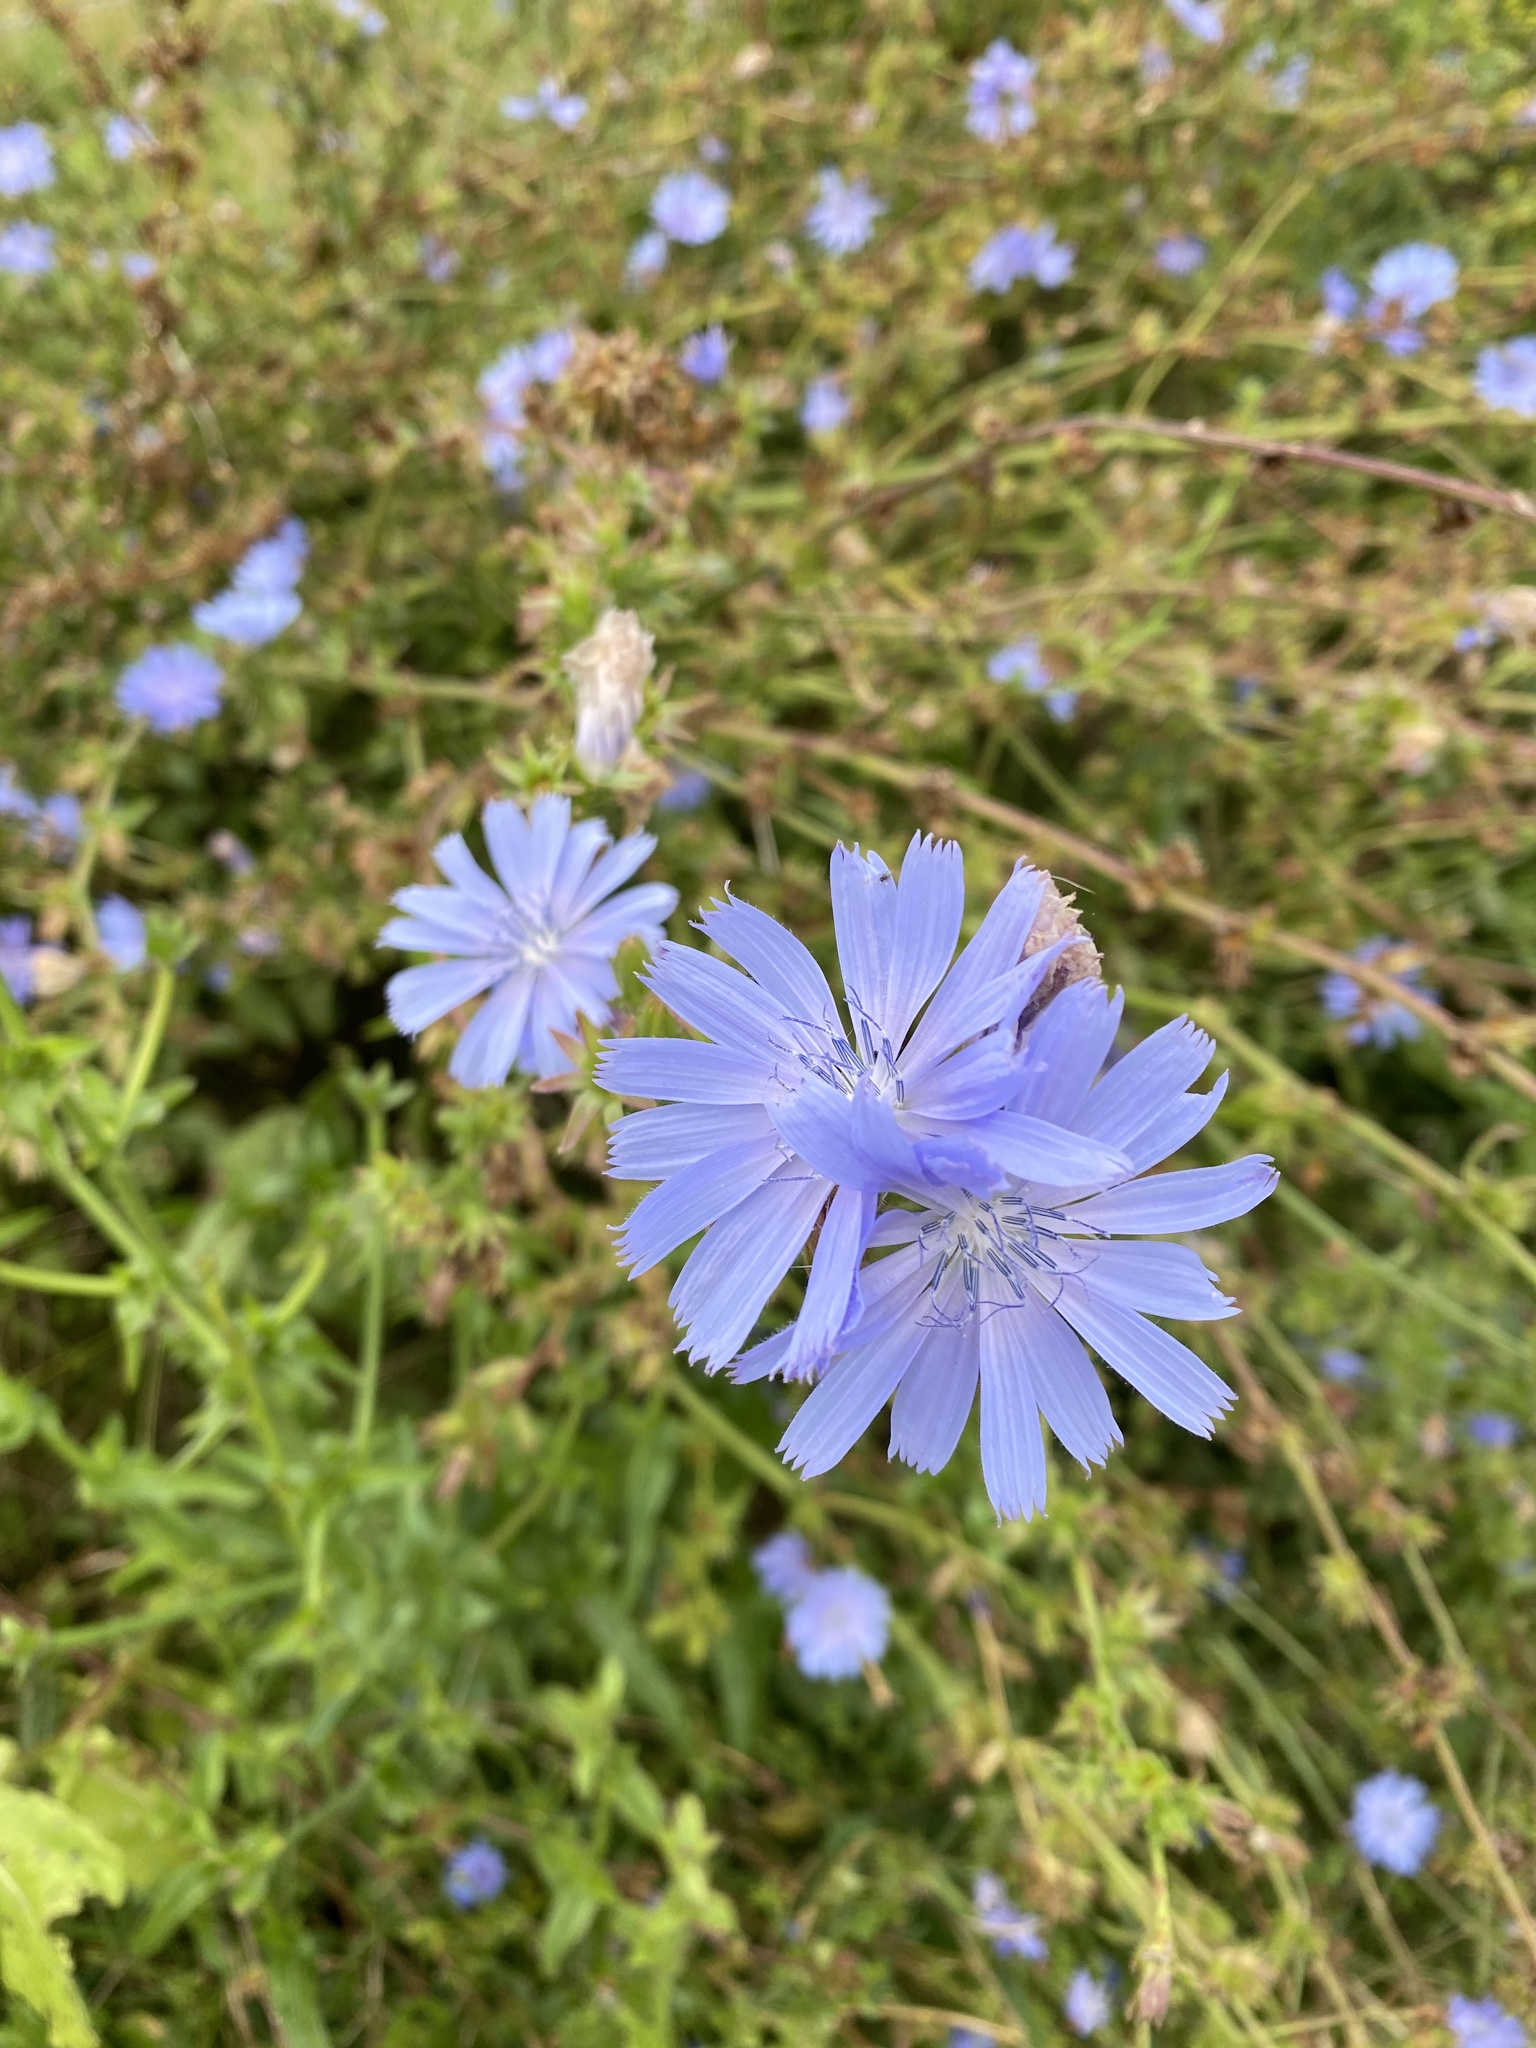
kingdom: Plantae
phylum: Tracheophyta
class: Magnoliopsida
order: Asterales
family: Asteraceae
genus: Cichorium
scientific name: Cichorium intybus
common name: Chicory
